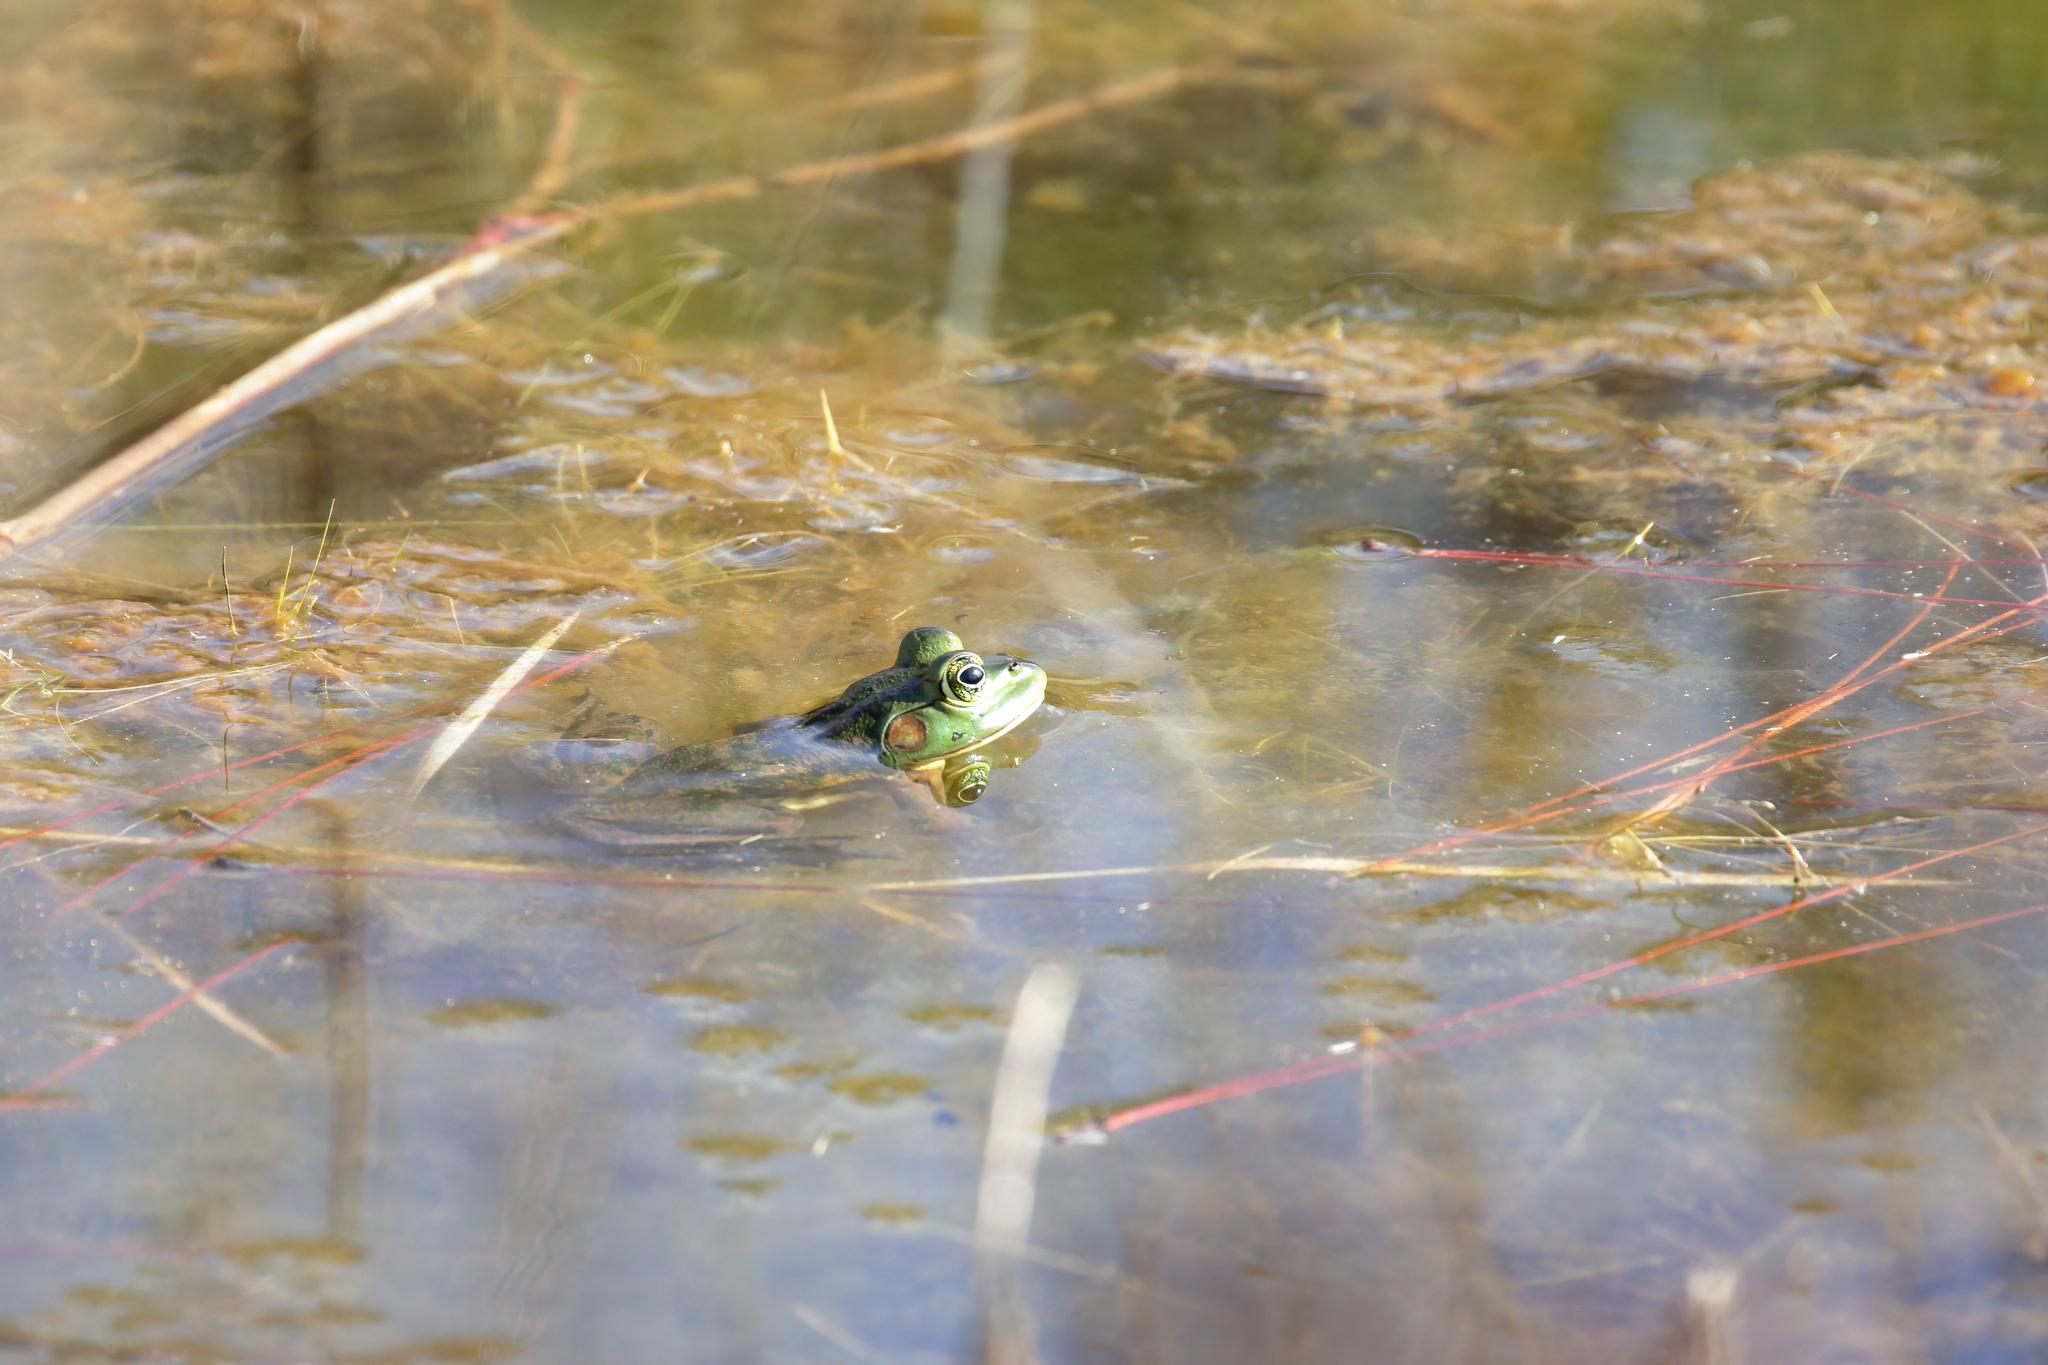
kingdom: Animalia
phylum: Chordata
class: Amphibia
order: Anura
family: Ranidae
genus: Lithobates
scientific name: Lithobates grylio
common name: Pig frog
